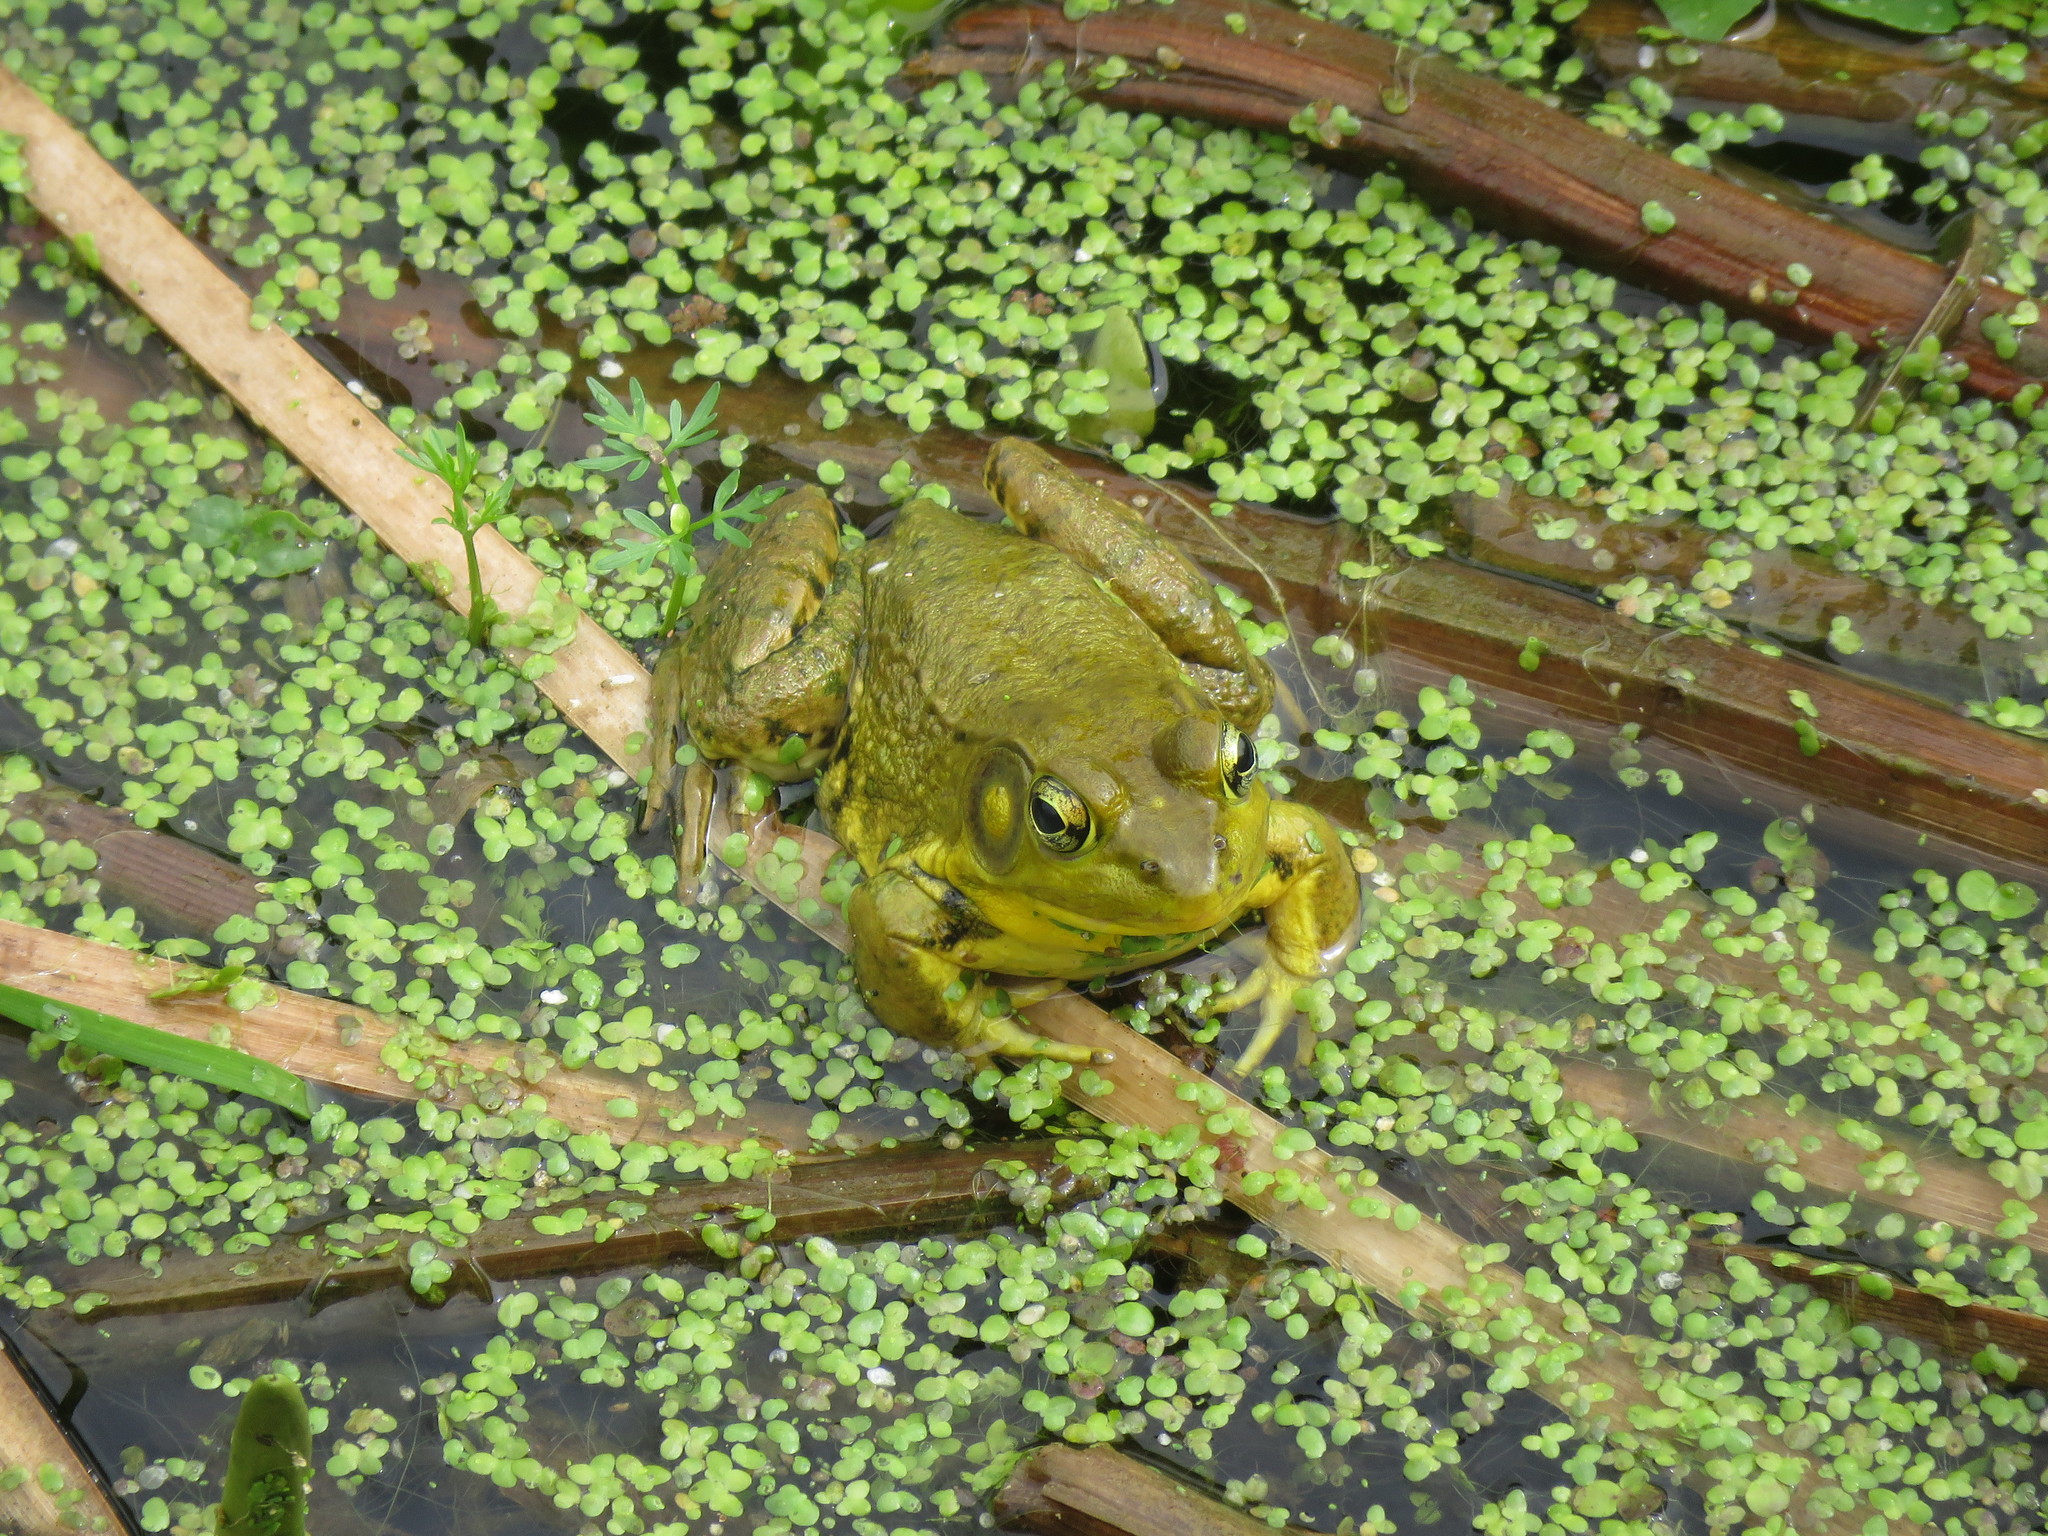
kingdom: Animalia
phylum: Chordata
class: Amphibia
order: Anura
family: Ranidae
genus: Lithobates
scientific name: Lithobates clamitans
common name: Green frog
